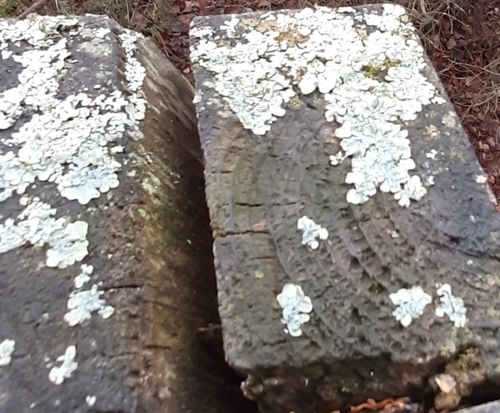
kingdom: Fungi
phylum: Ascomycota
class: Lecanoromycetes
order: Lecanorales
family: Parmeliaceae
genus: Parmelia
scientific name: Parmelia sulcata
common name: Netted shield lichen
